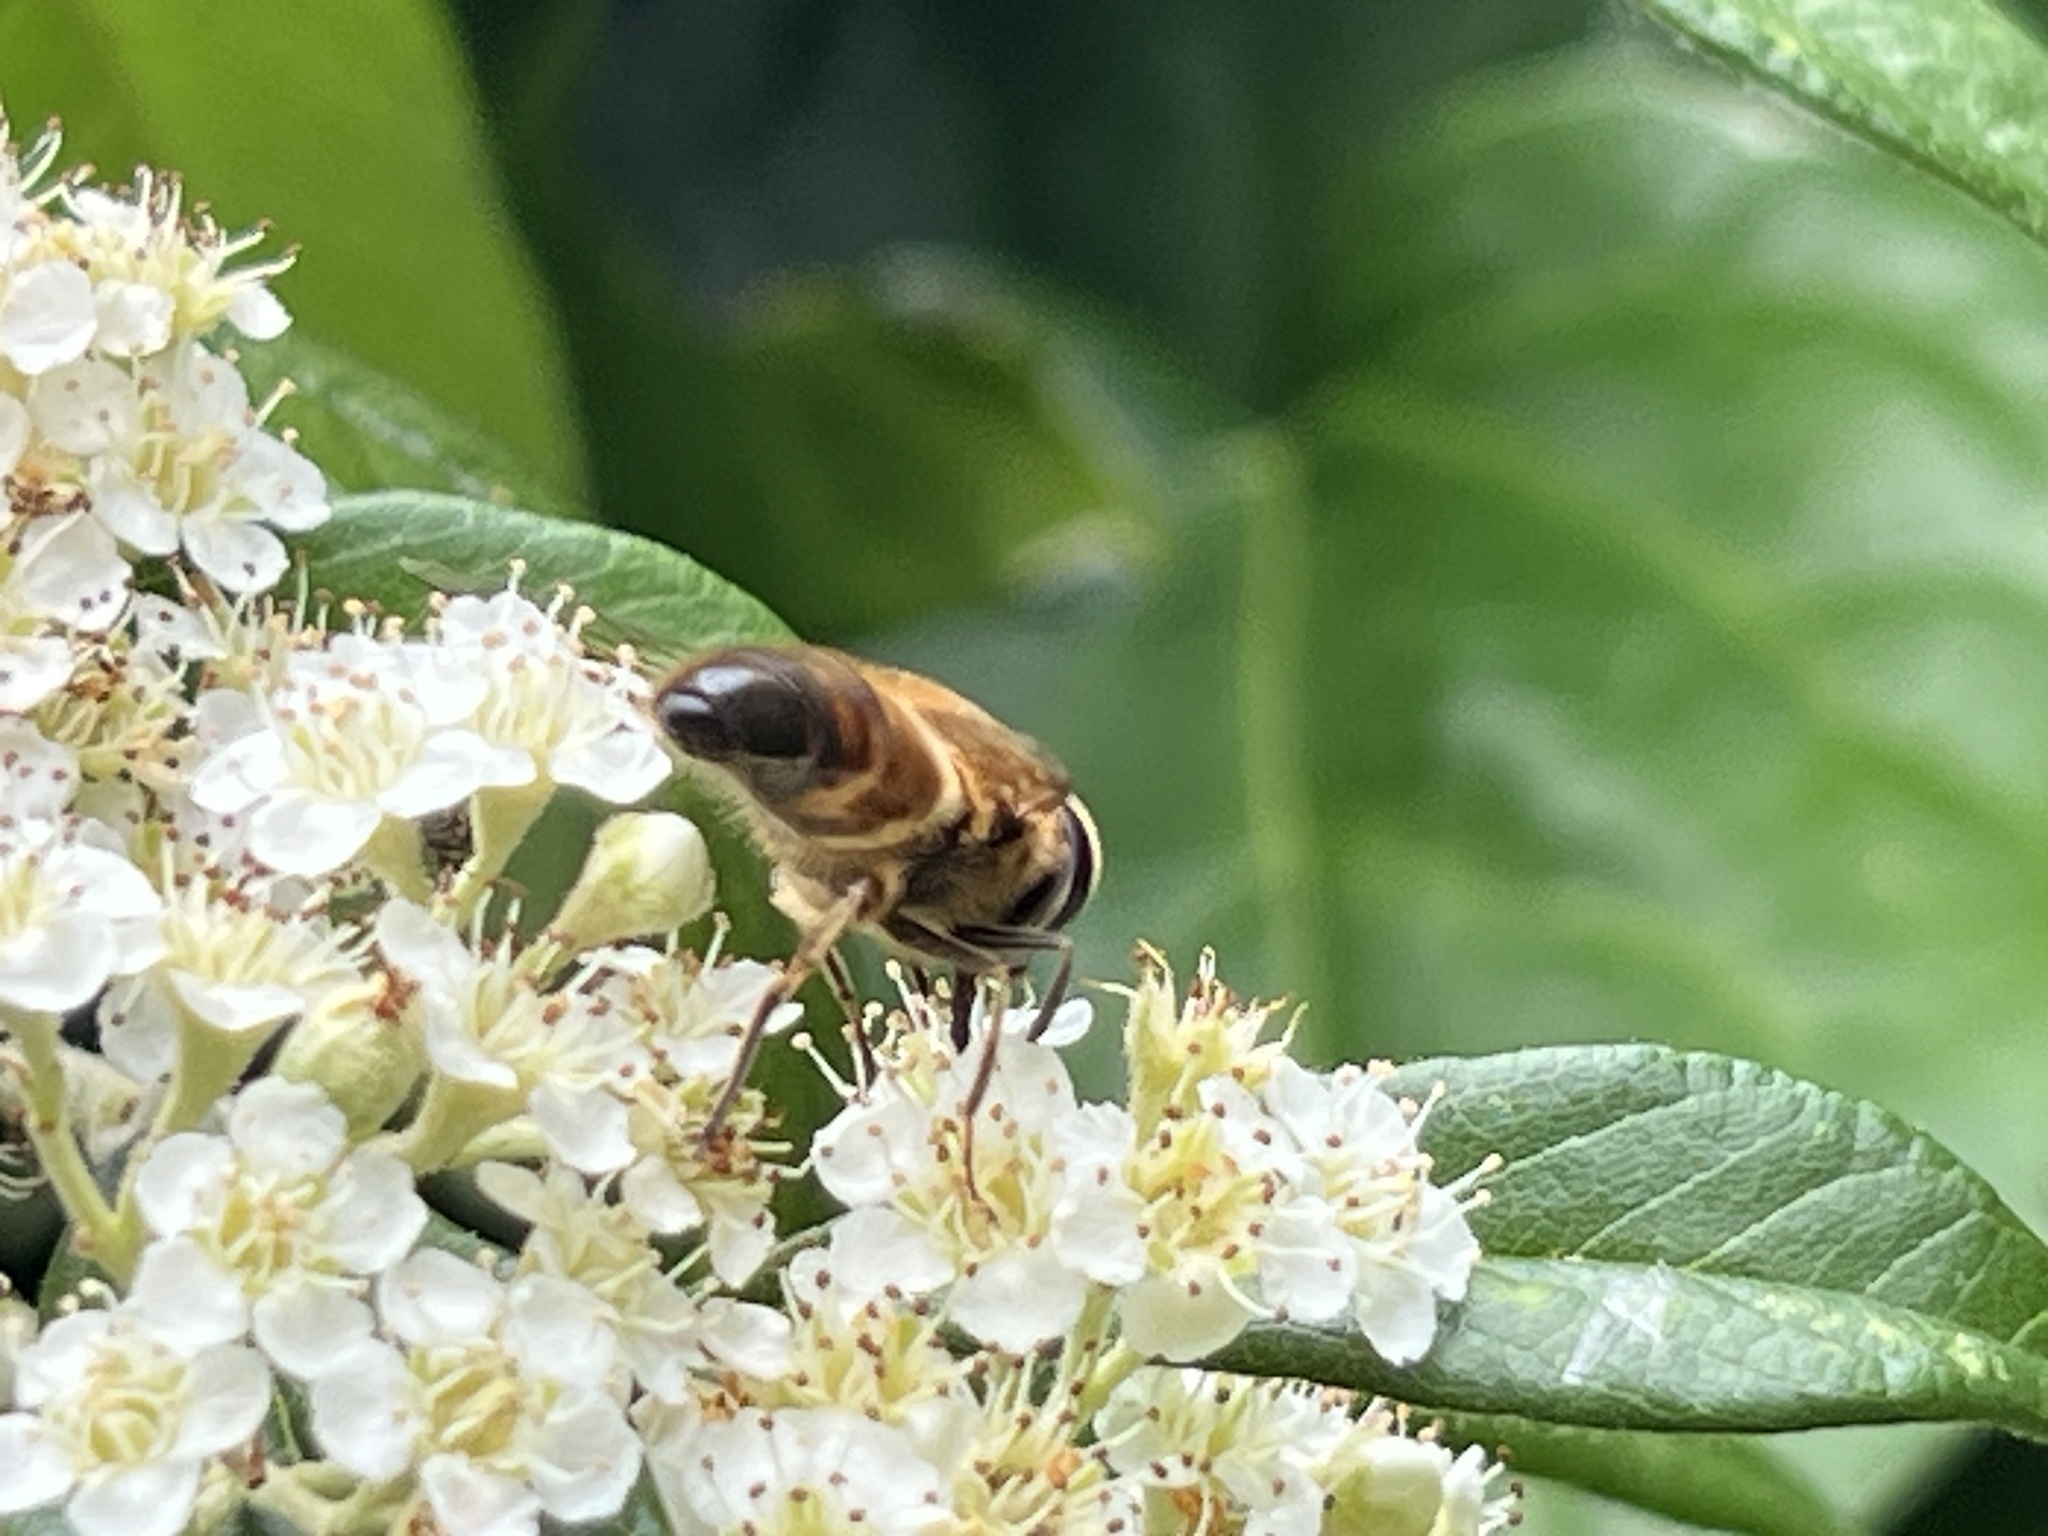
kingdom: Animalia
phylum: Arthropoda
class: Insecta
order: Diptera
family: Syrphidae
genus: Eristalis
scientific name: Eristalis tenax
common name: Drone fly
